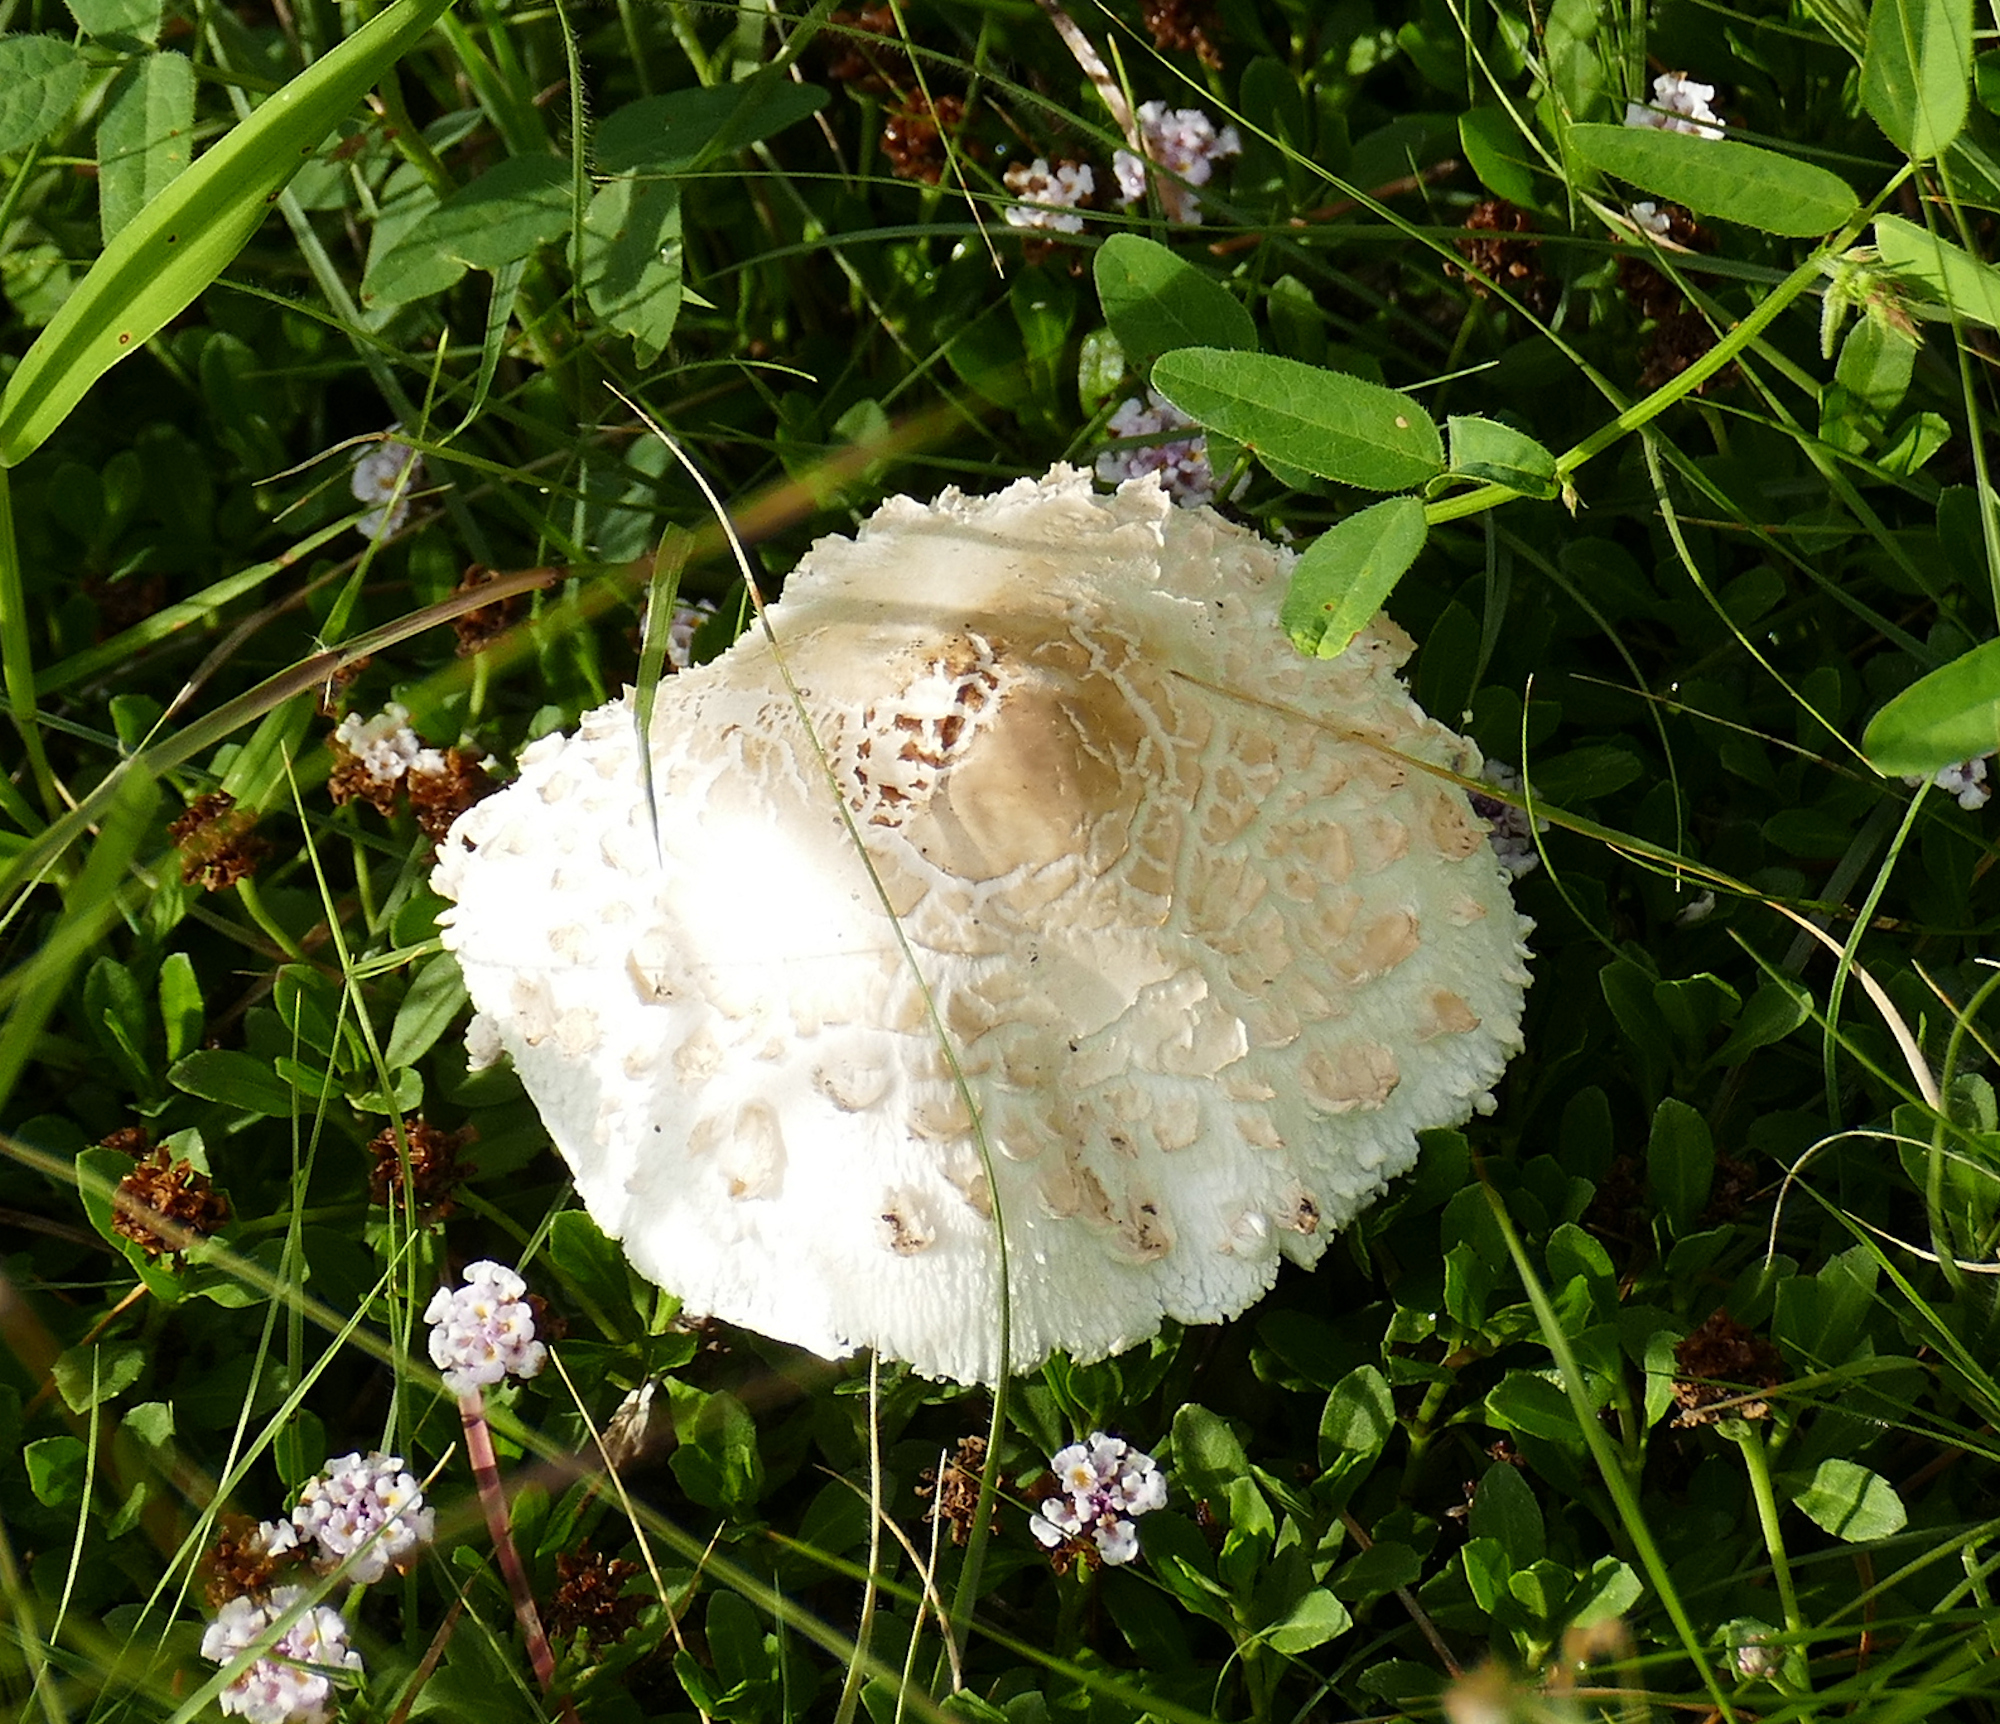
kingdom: Fungi
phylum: Basidiomycota
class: Agaricomycetes
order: Agaricales
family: Agaricaceae
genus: Chlorophyllum
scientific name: Chlorophyllum molybdites
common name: False parasol
